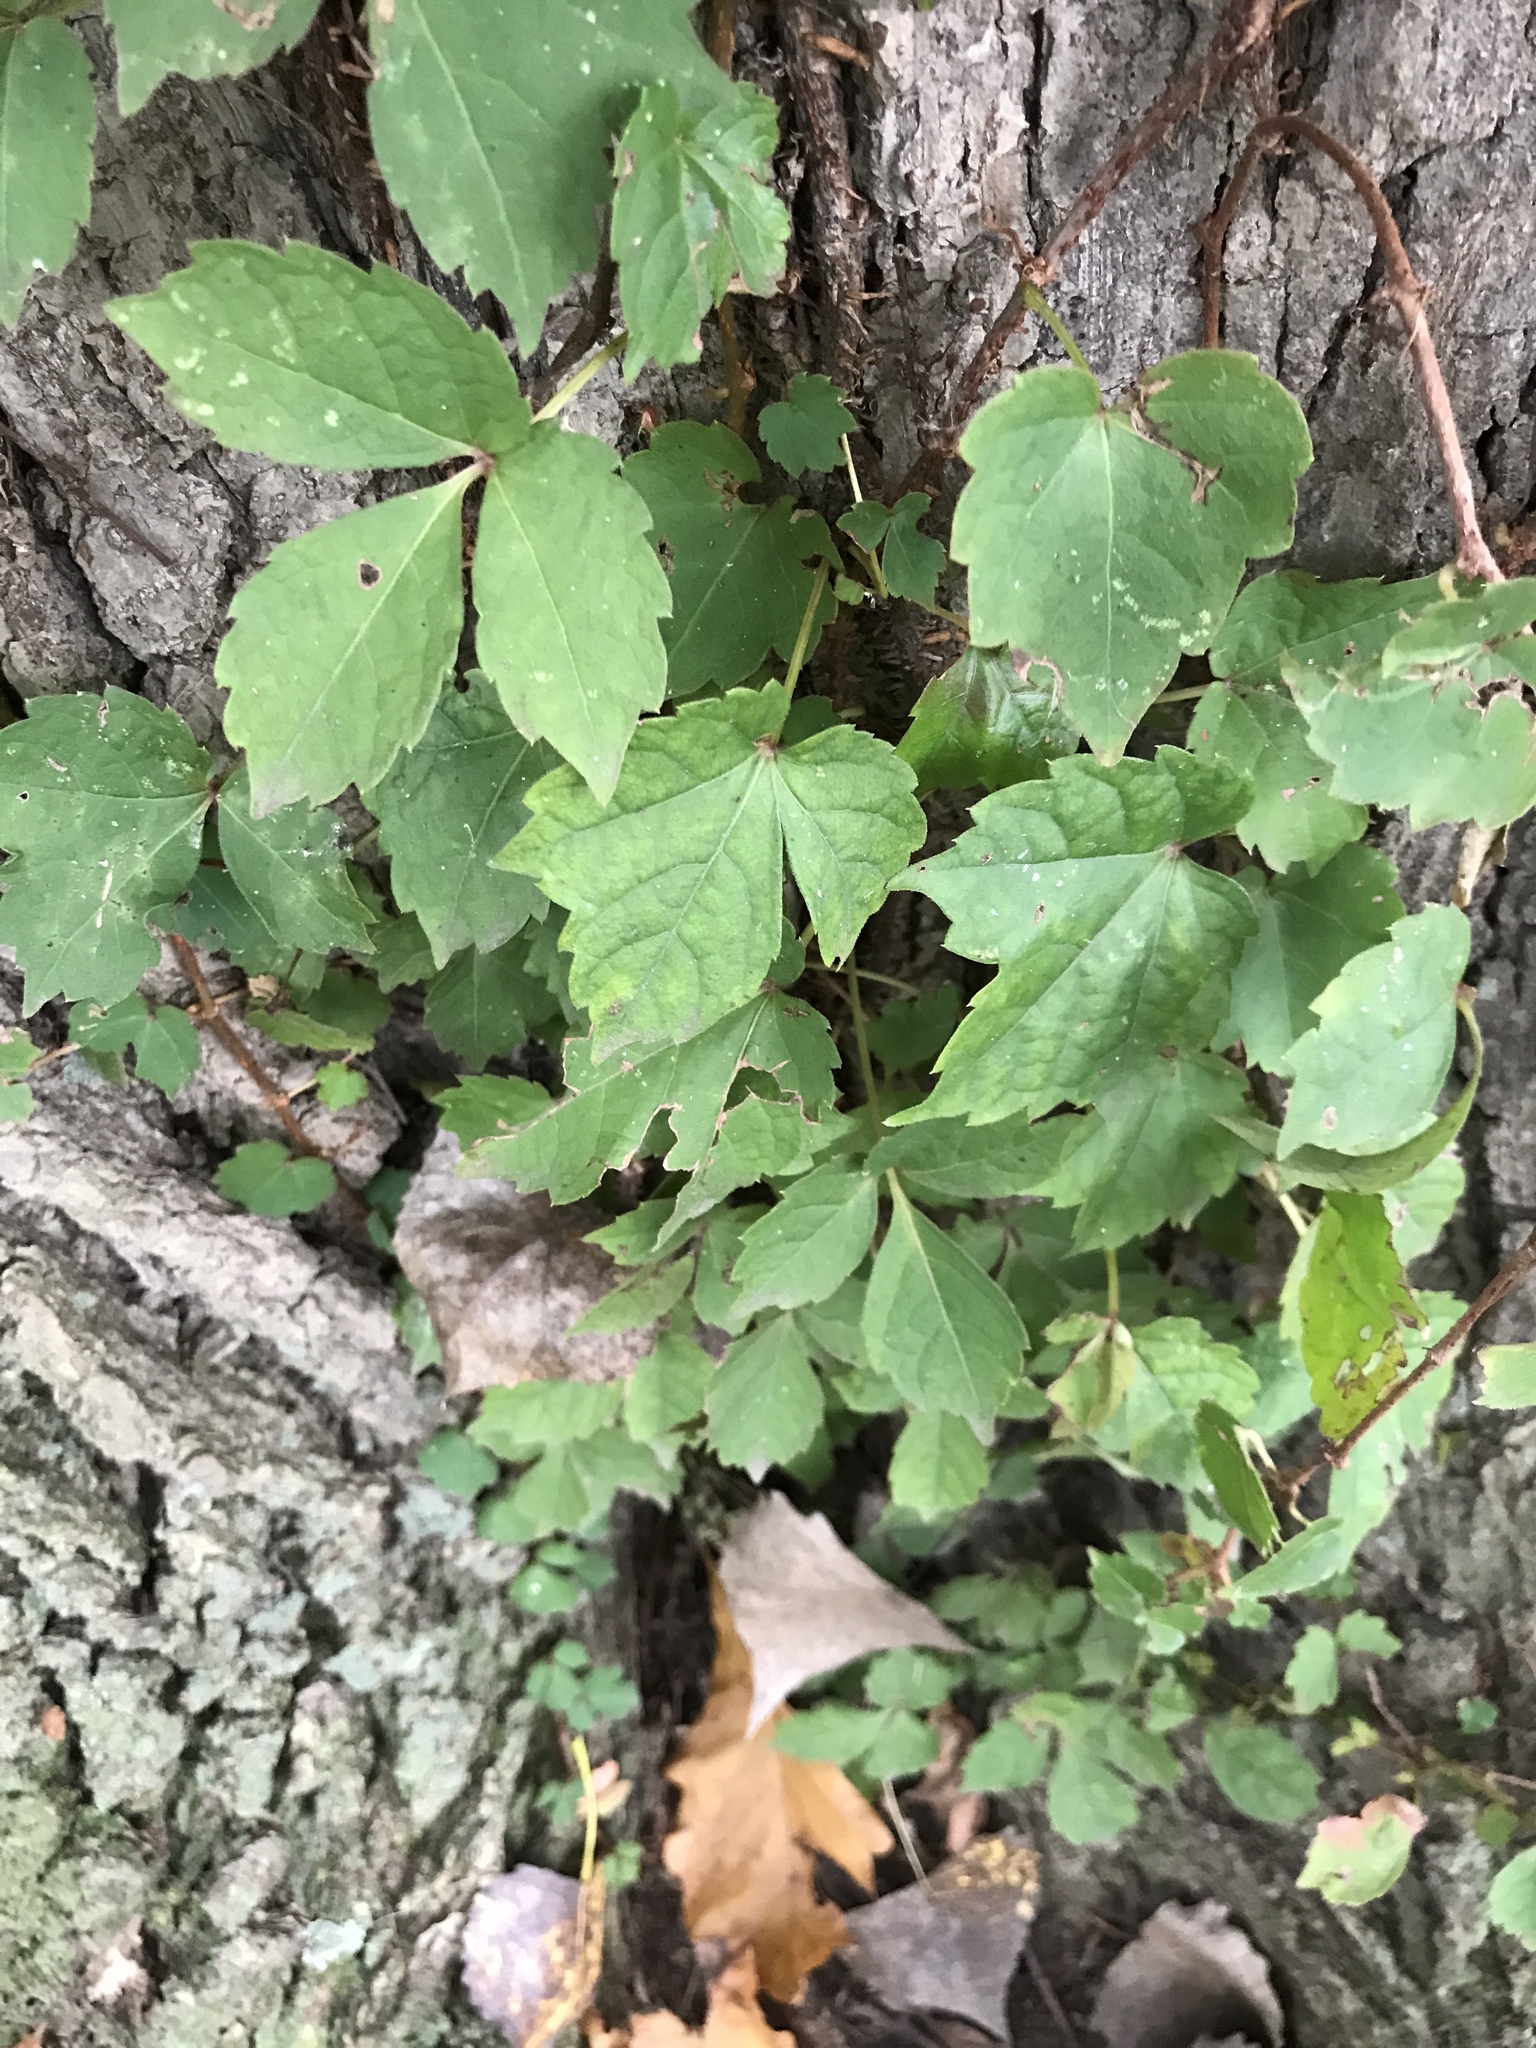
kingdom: Plantae
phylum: Tracheophyta
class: Magnoliopsida
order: Vitales
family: Vitaceae
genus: Parthenocissus
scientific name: Parthenocissus tricuspidata
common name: Boston ivy
